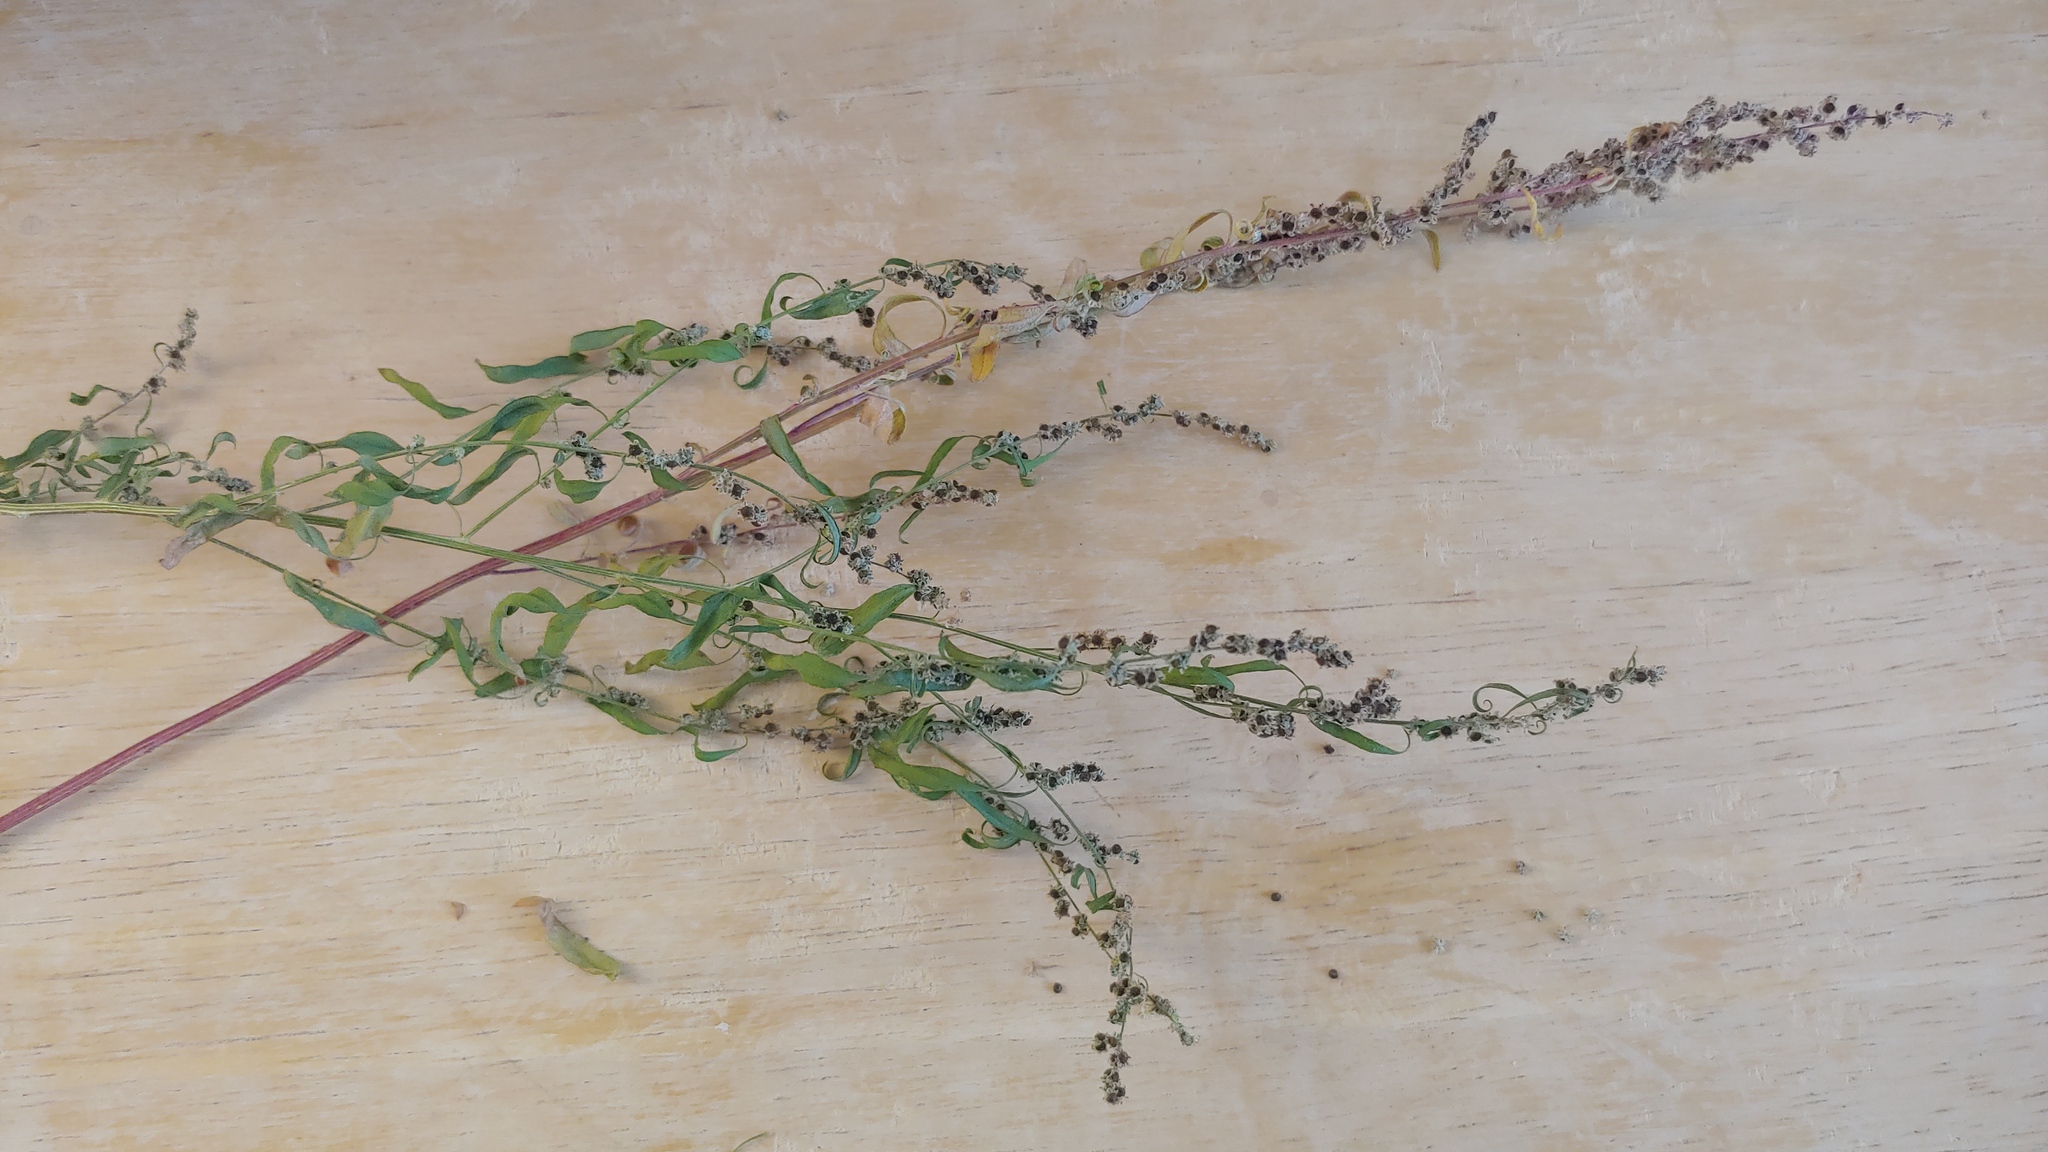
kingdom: Plantae
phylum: Tracheophyta
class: Magnoliopsida
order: Caryophyllales
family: Amaranthaceae
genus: Chenopodium
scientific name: Chenopodium pratericola
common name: Desert goosefoot
